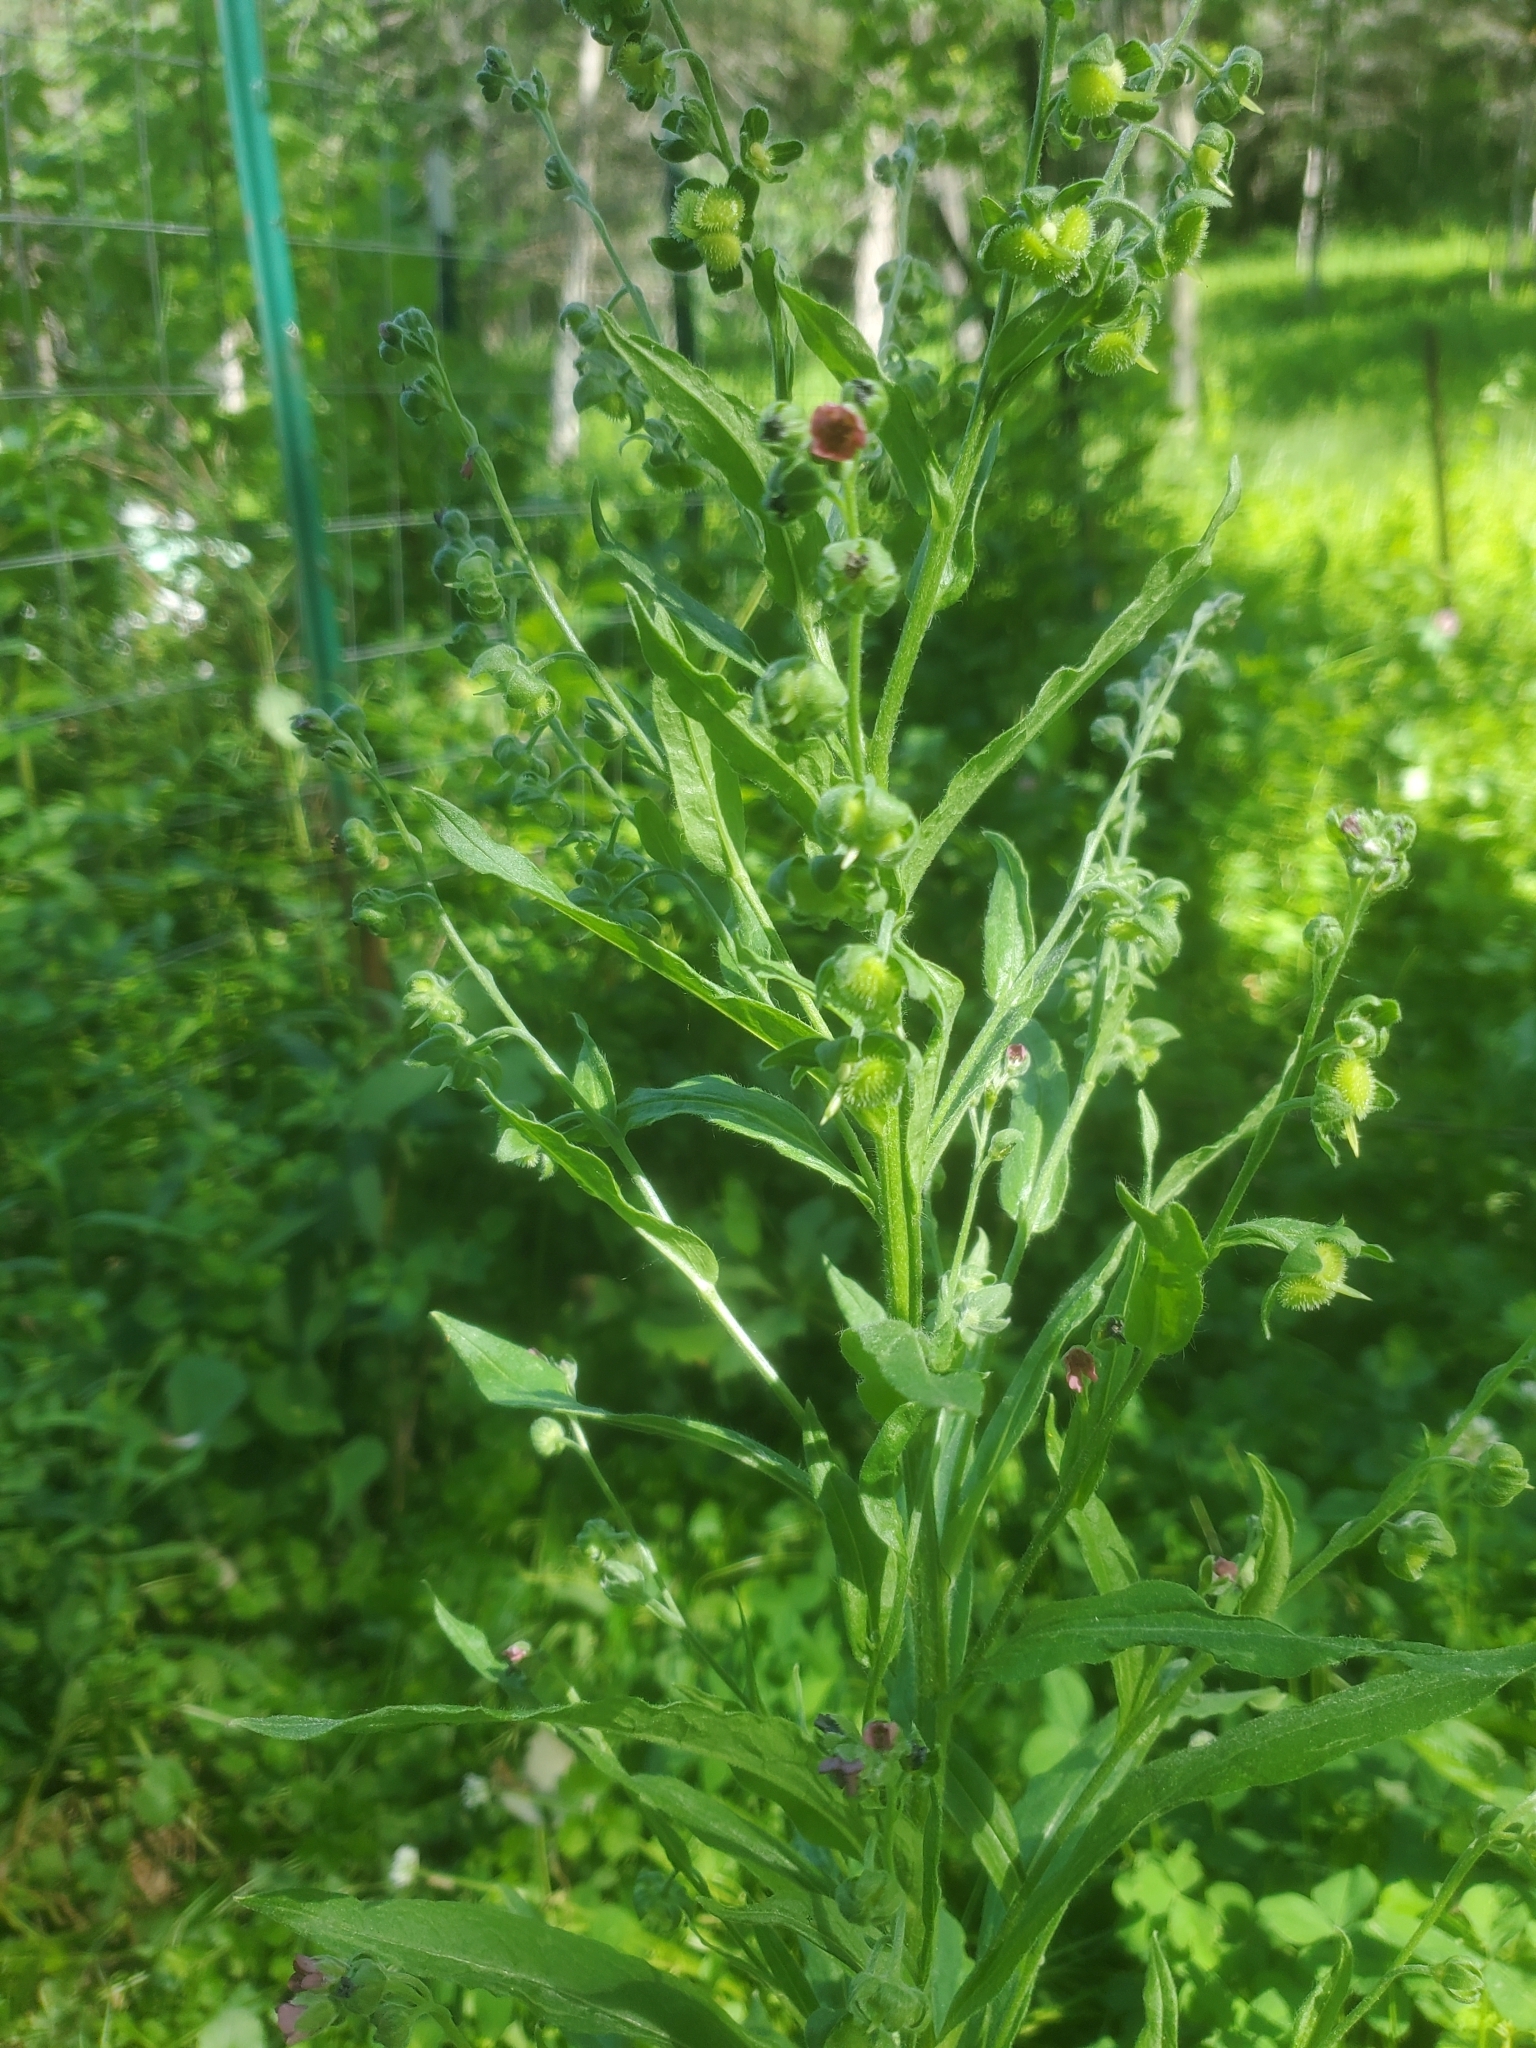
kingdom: Plantae
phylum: Tracheophyta
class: Magnoliopsida
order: Boraginales
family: Boraginaceae
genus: Cynoglossum
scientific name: Cynoglossum officinale
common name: Hound's-tongue
